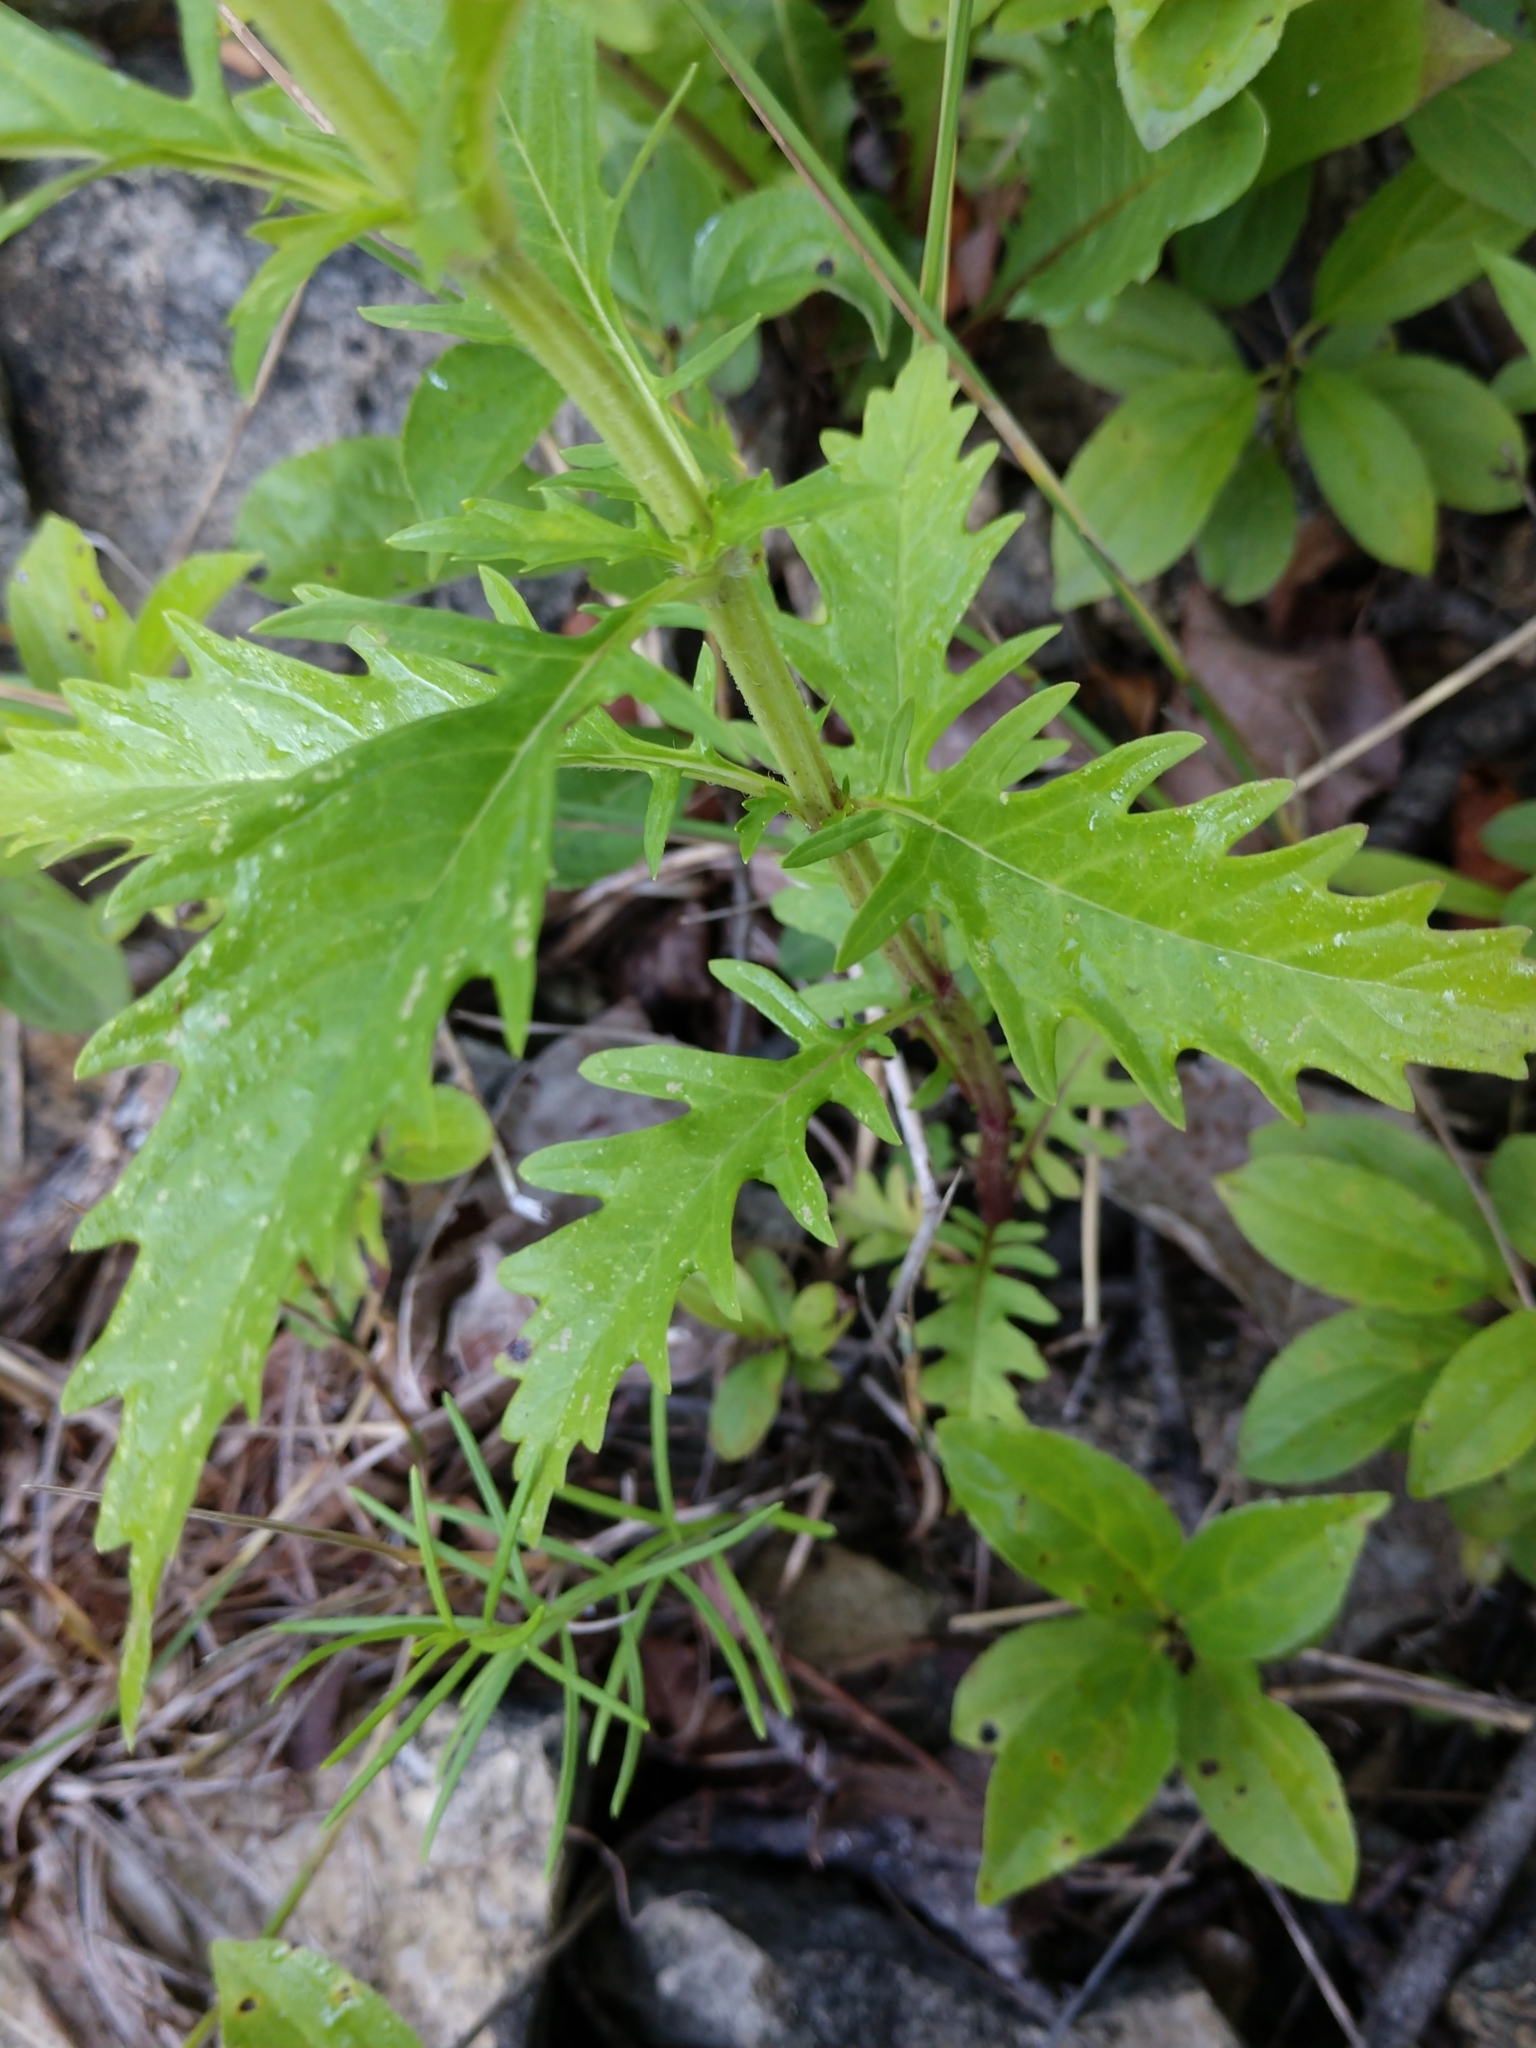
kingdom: Plantae
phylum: Tracheophyta
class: Magnoliopsida
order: Lamiales
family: Lamiaceae
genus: Lycopus
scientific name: Lycopus americanus
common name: American bugleweed
